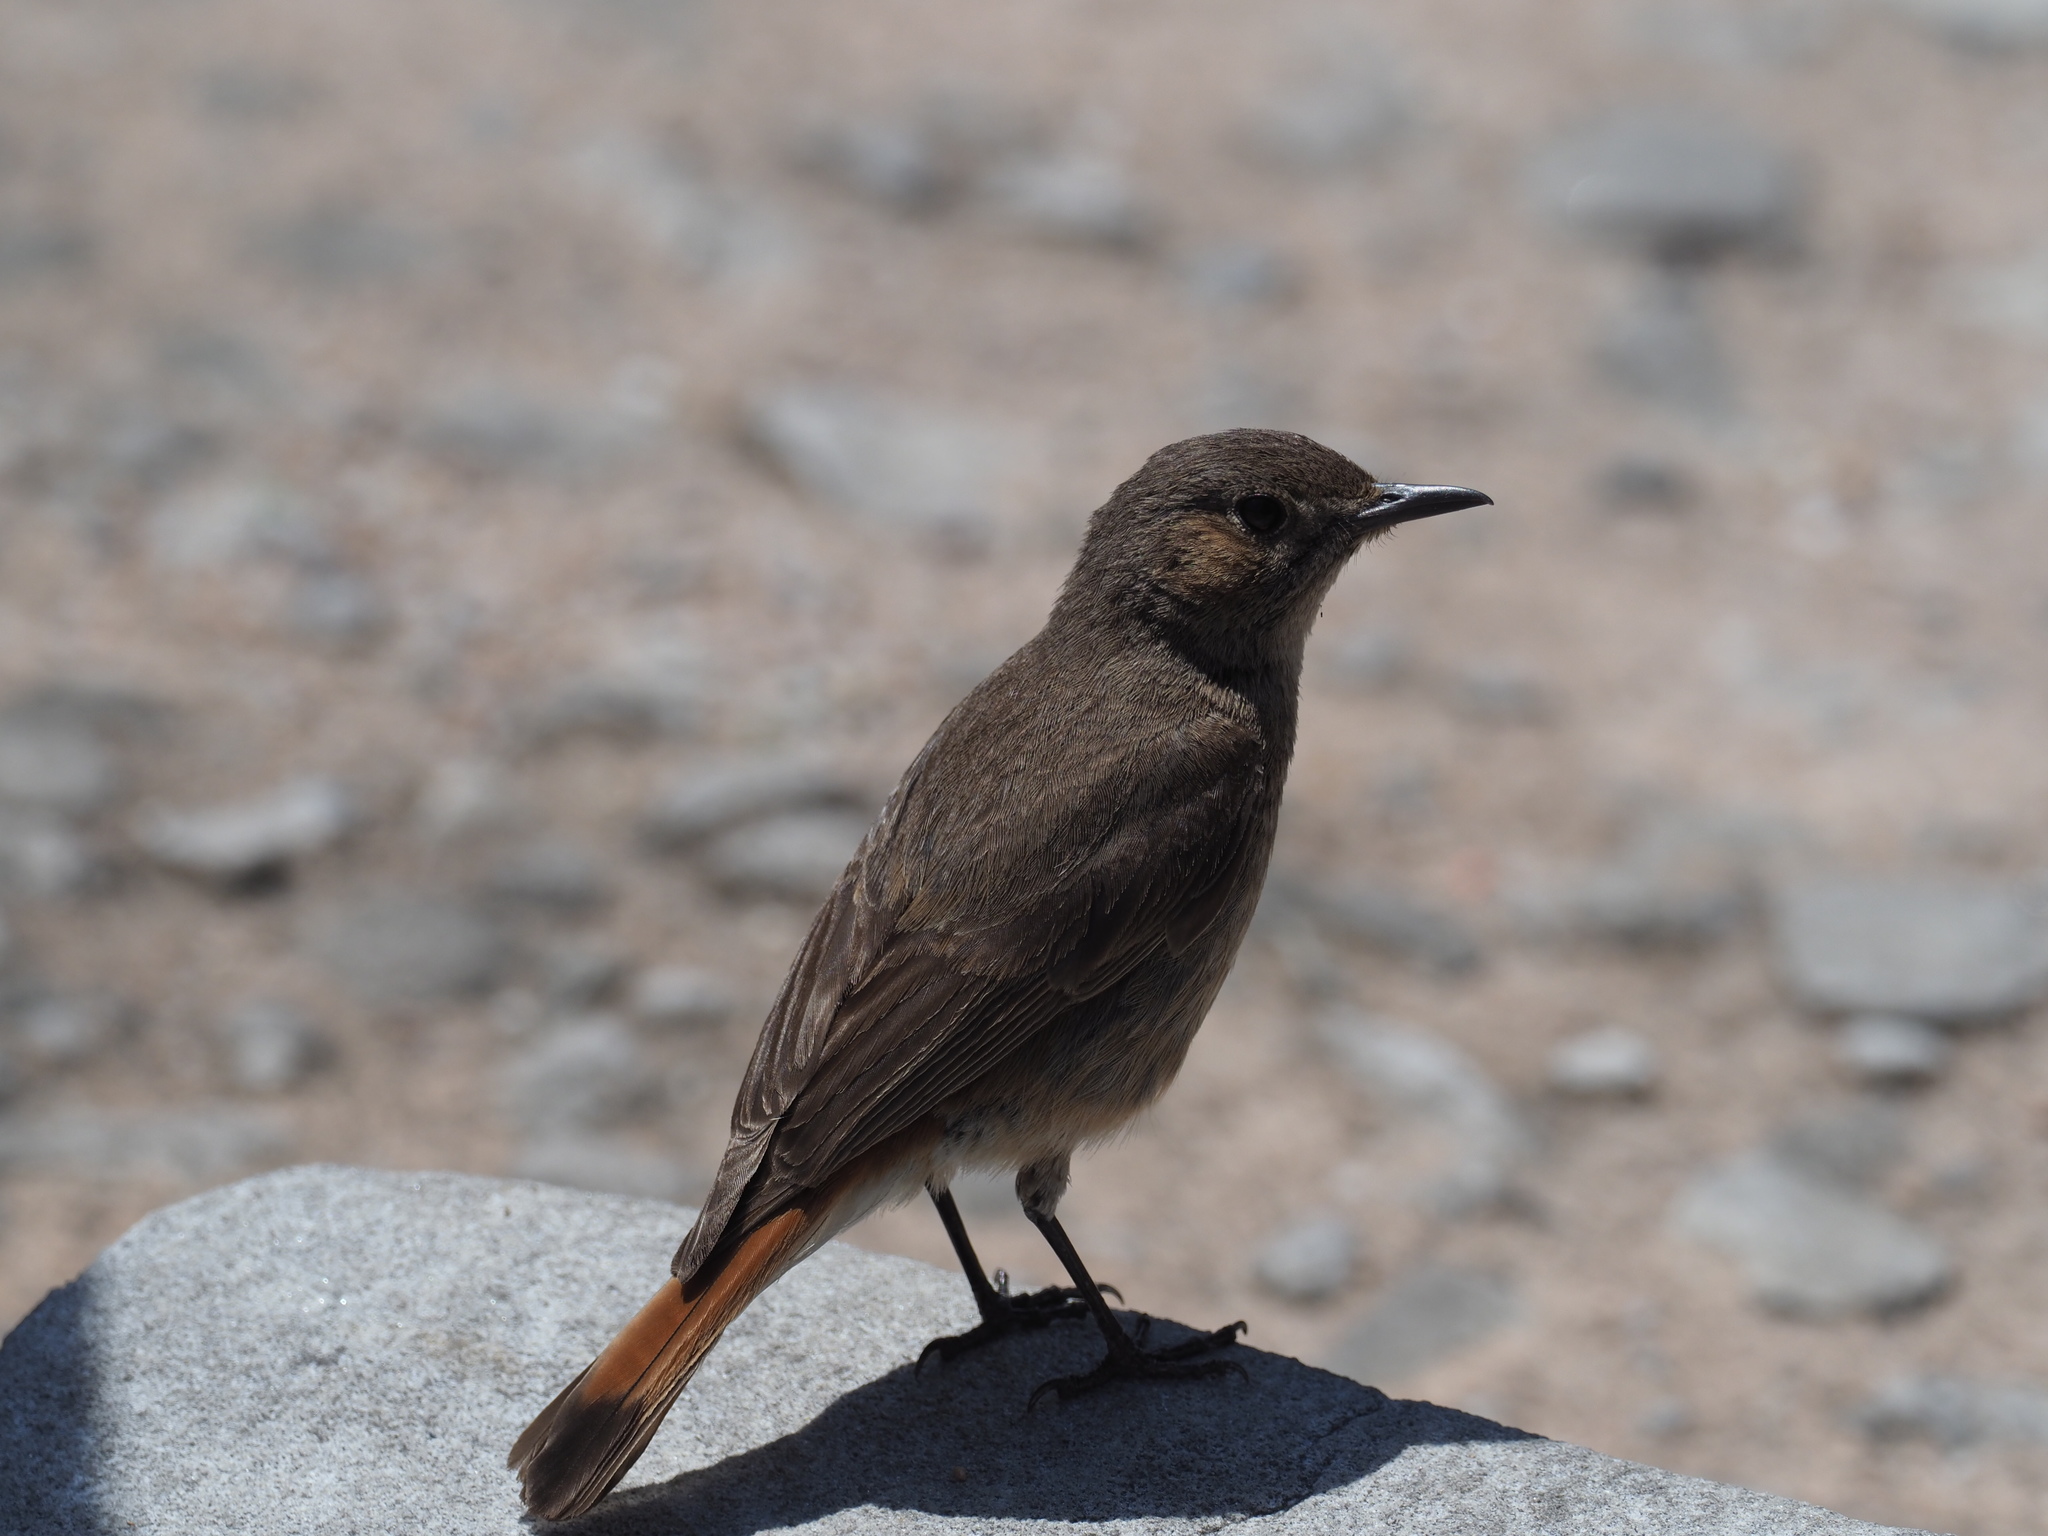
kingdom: Animalia
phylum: Chordata
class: Aves
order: Passeriformes
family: Muscicapidae
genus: Oenanthe
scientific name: Oenanthe familiaris
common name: Familiar chat
